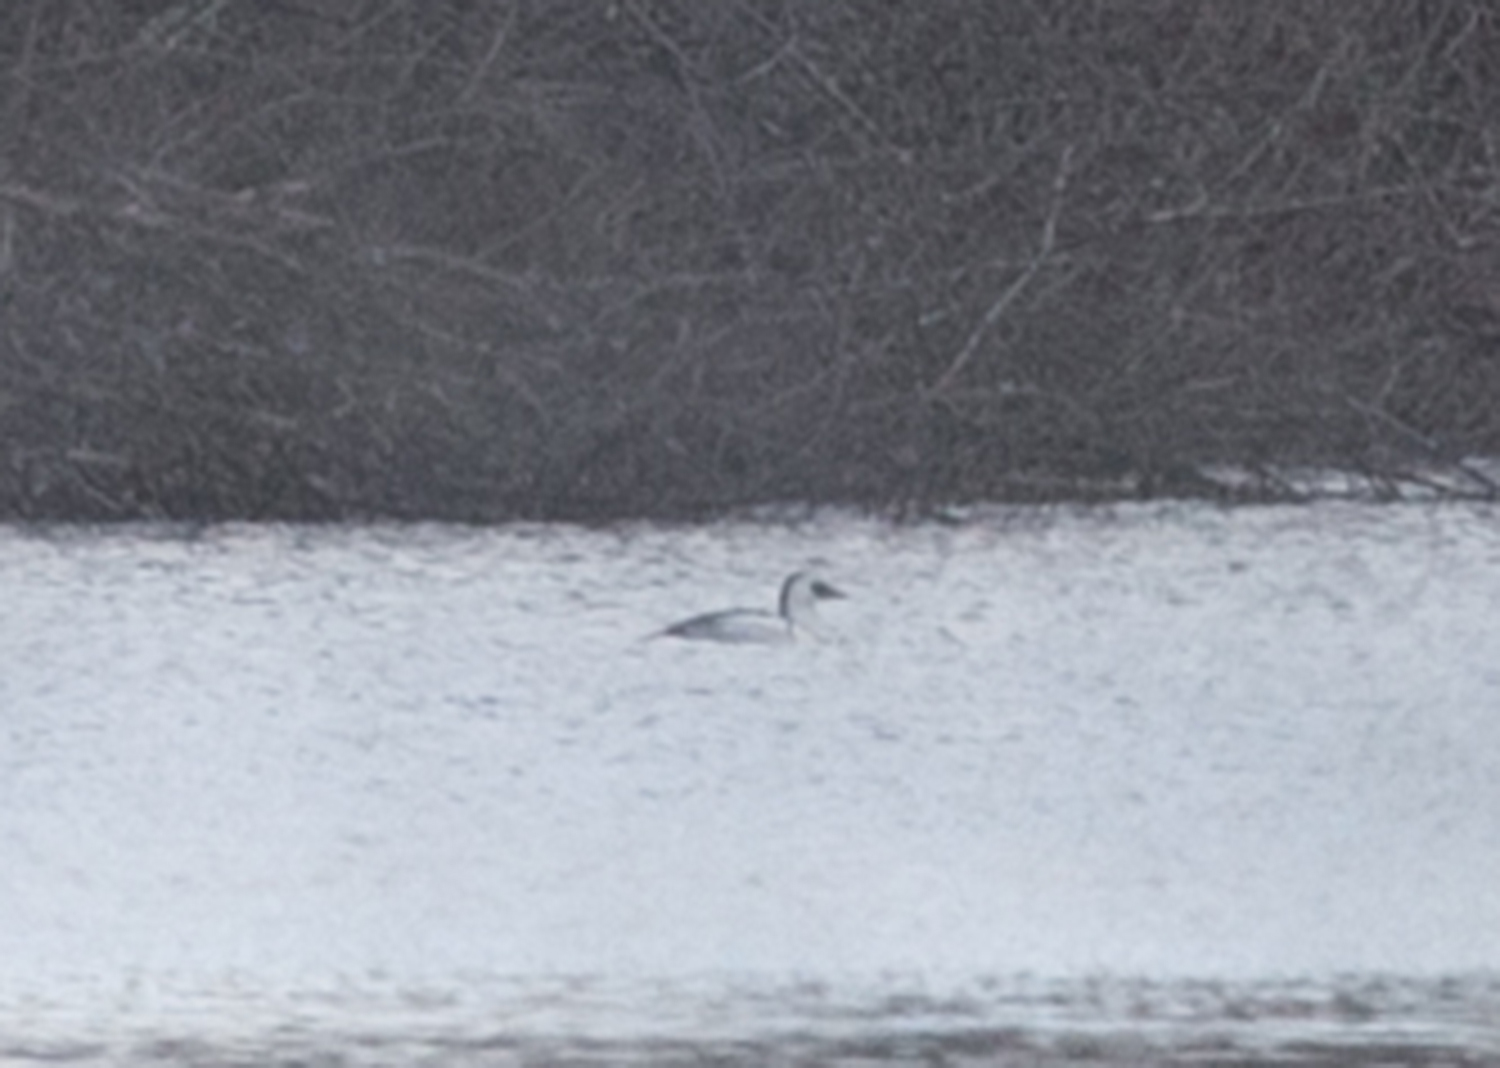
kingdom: Animalia
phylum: Chordata
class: Aves
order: Anseriformes
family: Anatidae
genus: Mergellus
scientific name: Mergellus albellus
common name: Smew
